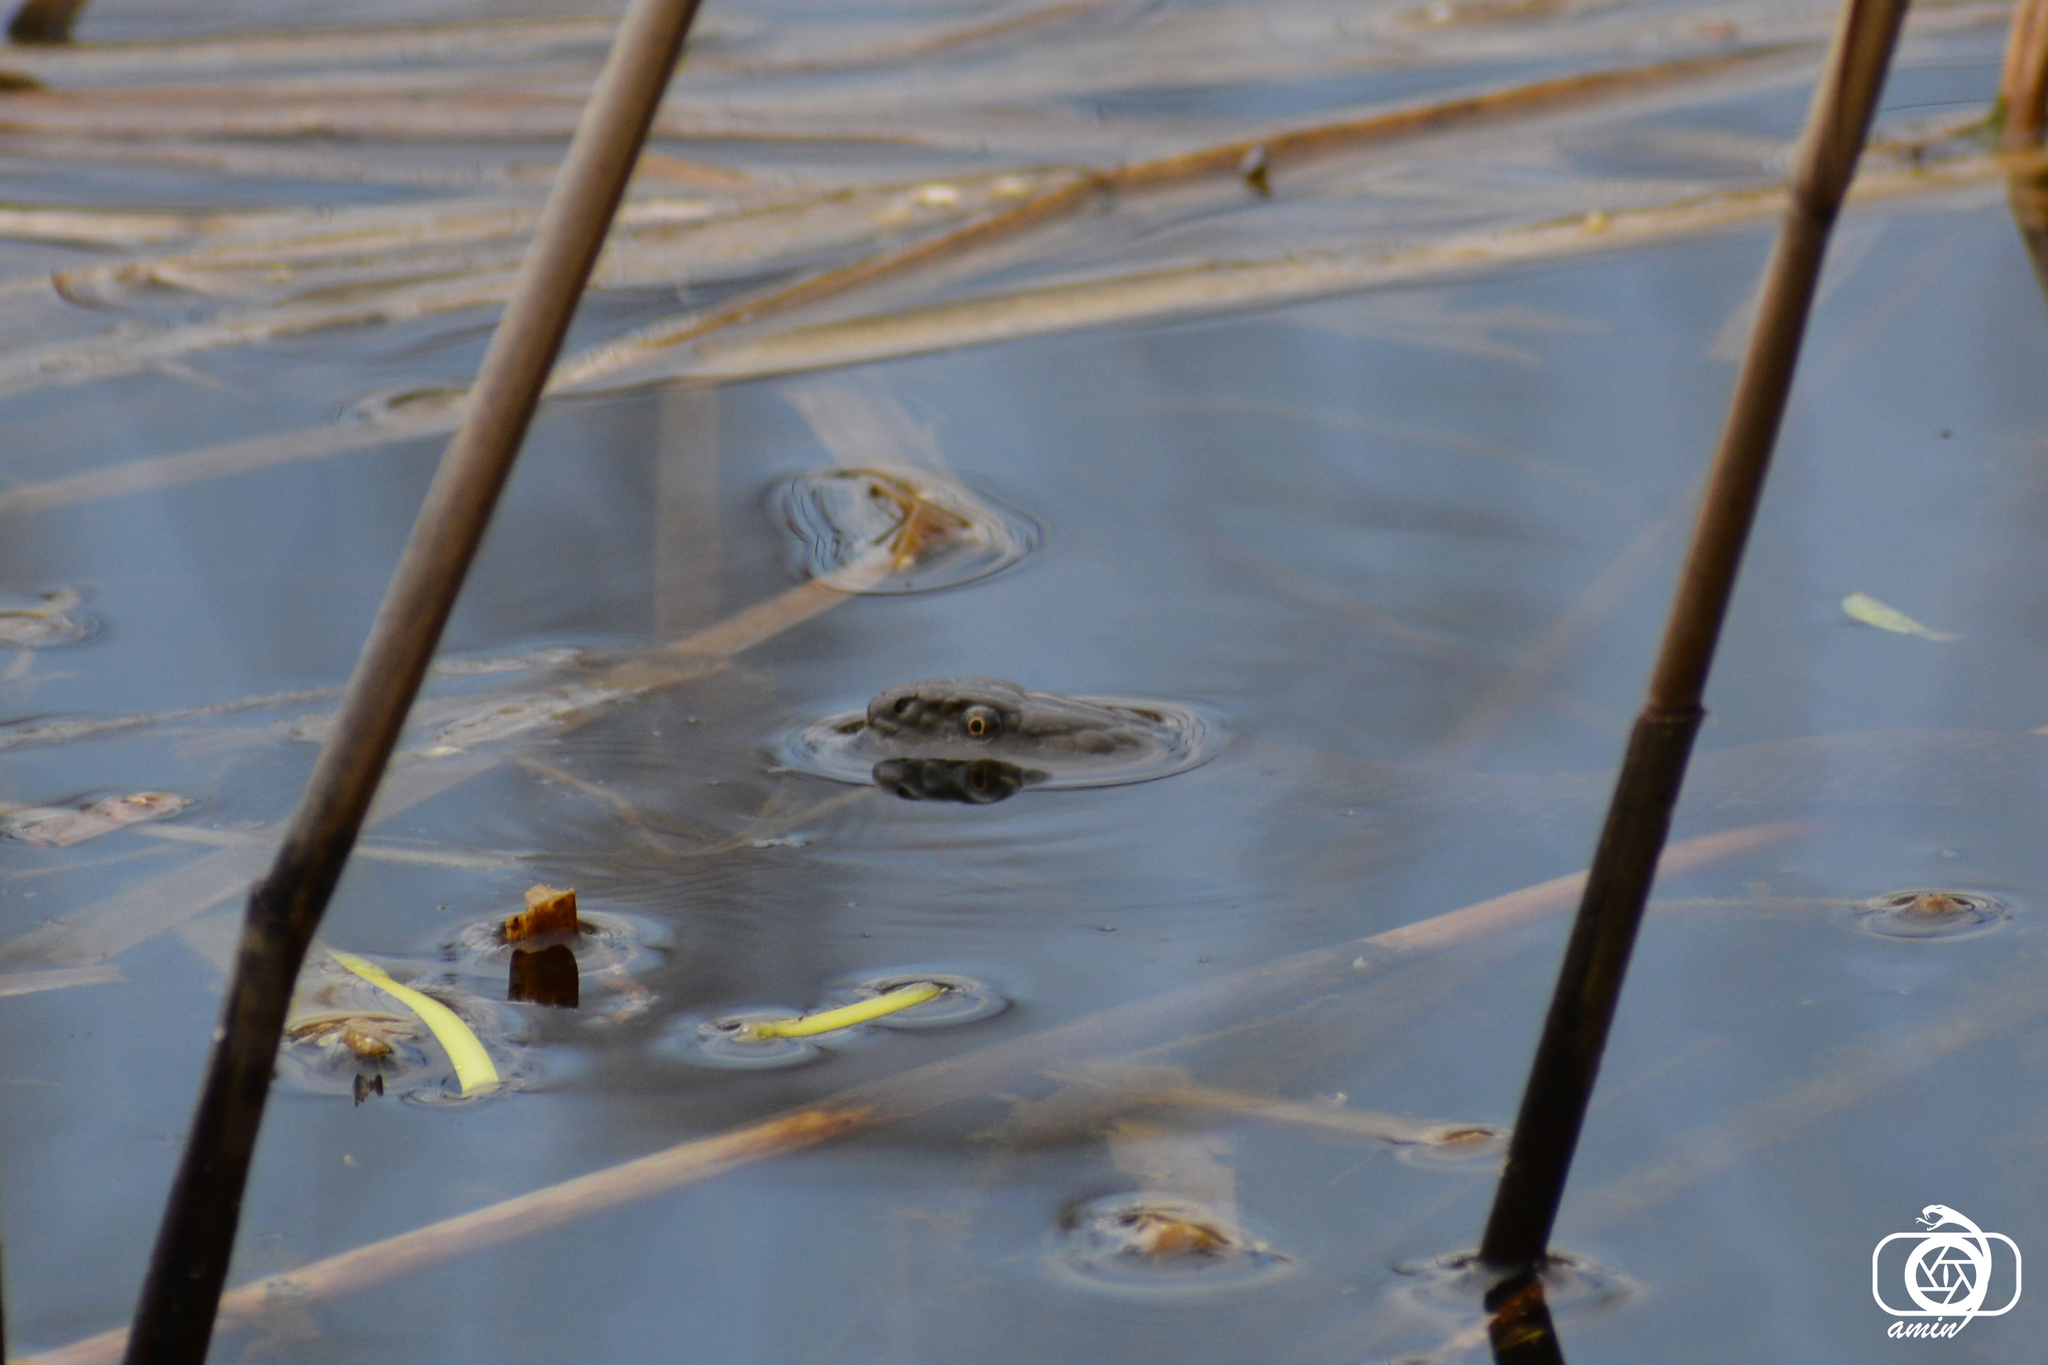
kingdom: Animalia
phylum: Chordata
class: Squamata
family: Colubridae
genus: Natrix
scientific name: Natrix tessellata
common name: Dice snake
